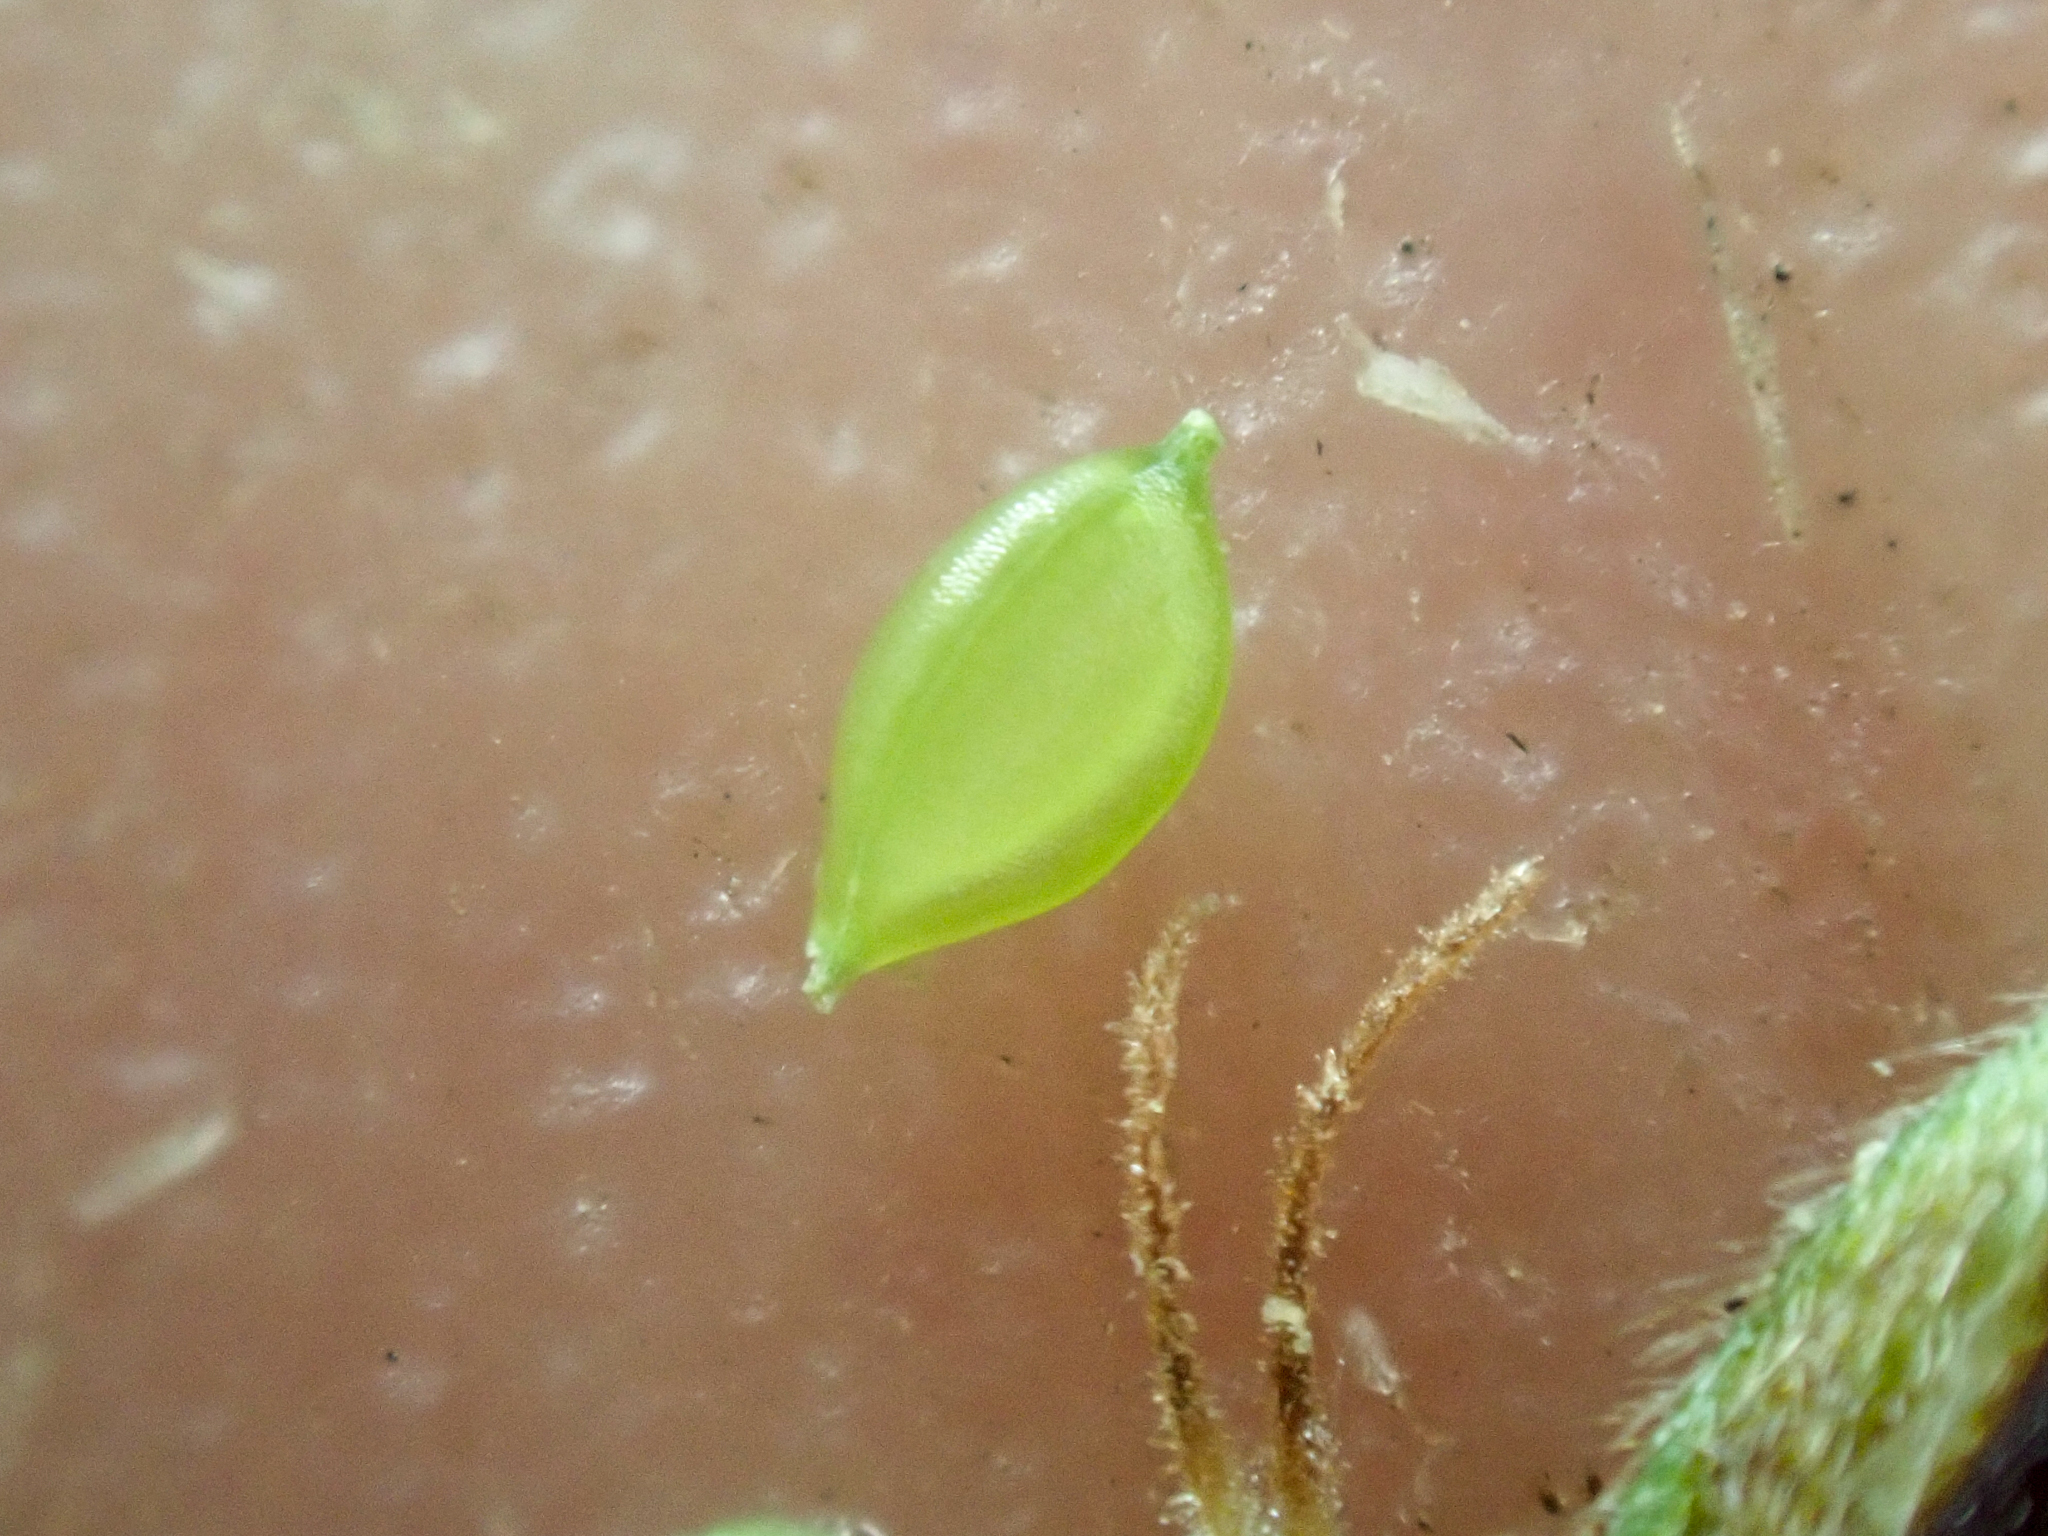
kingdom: Plantae
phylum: Tracheophyta
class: Liliopsida
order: Poales
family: Cyperaceae
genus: Carex
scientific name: Carex scirpoidea
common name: Canada single-spike sedge
